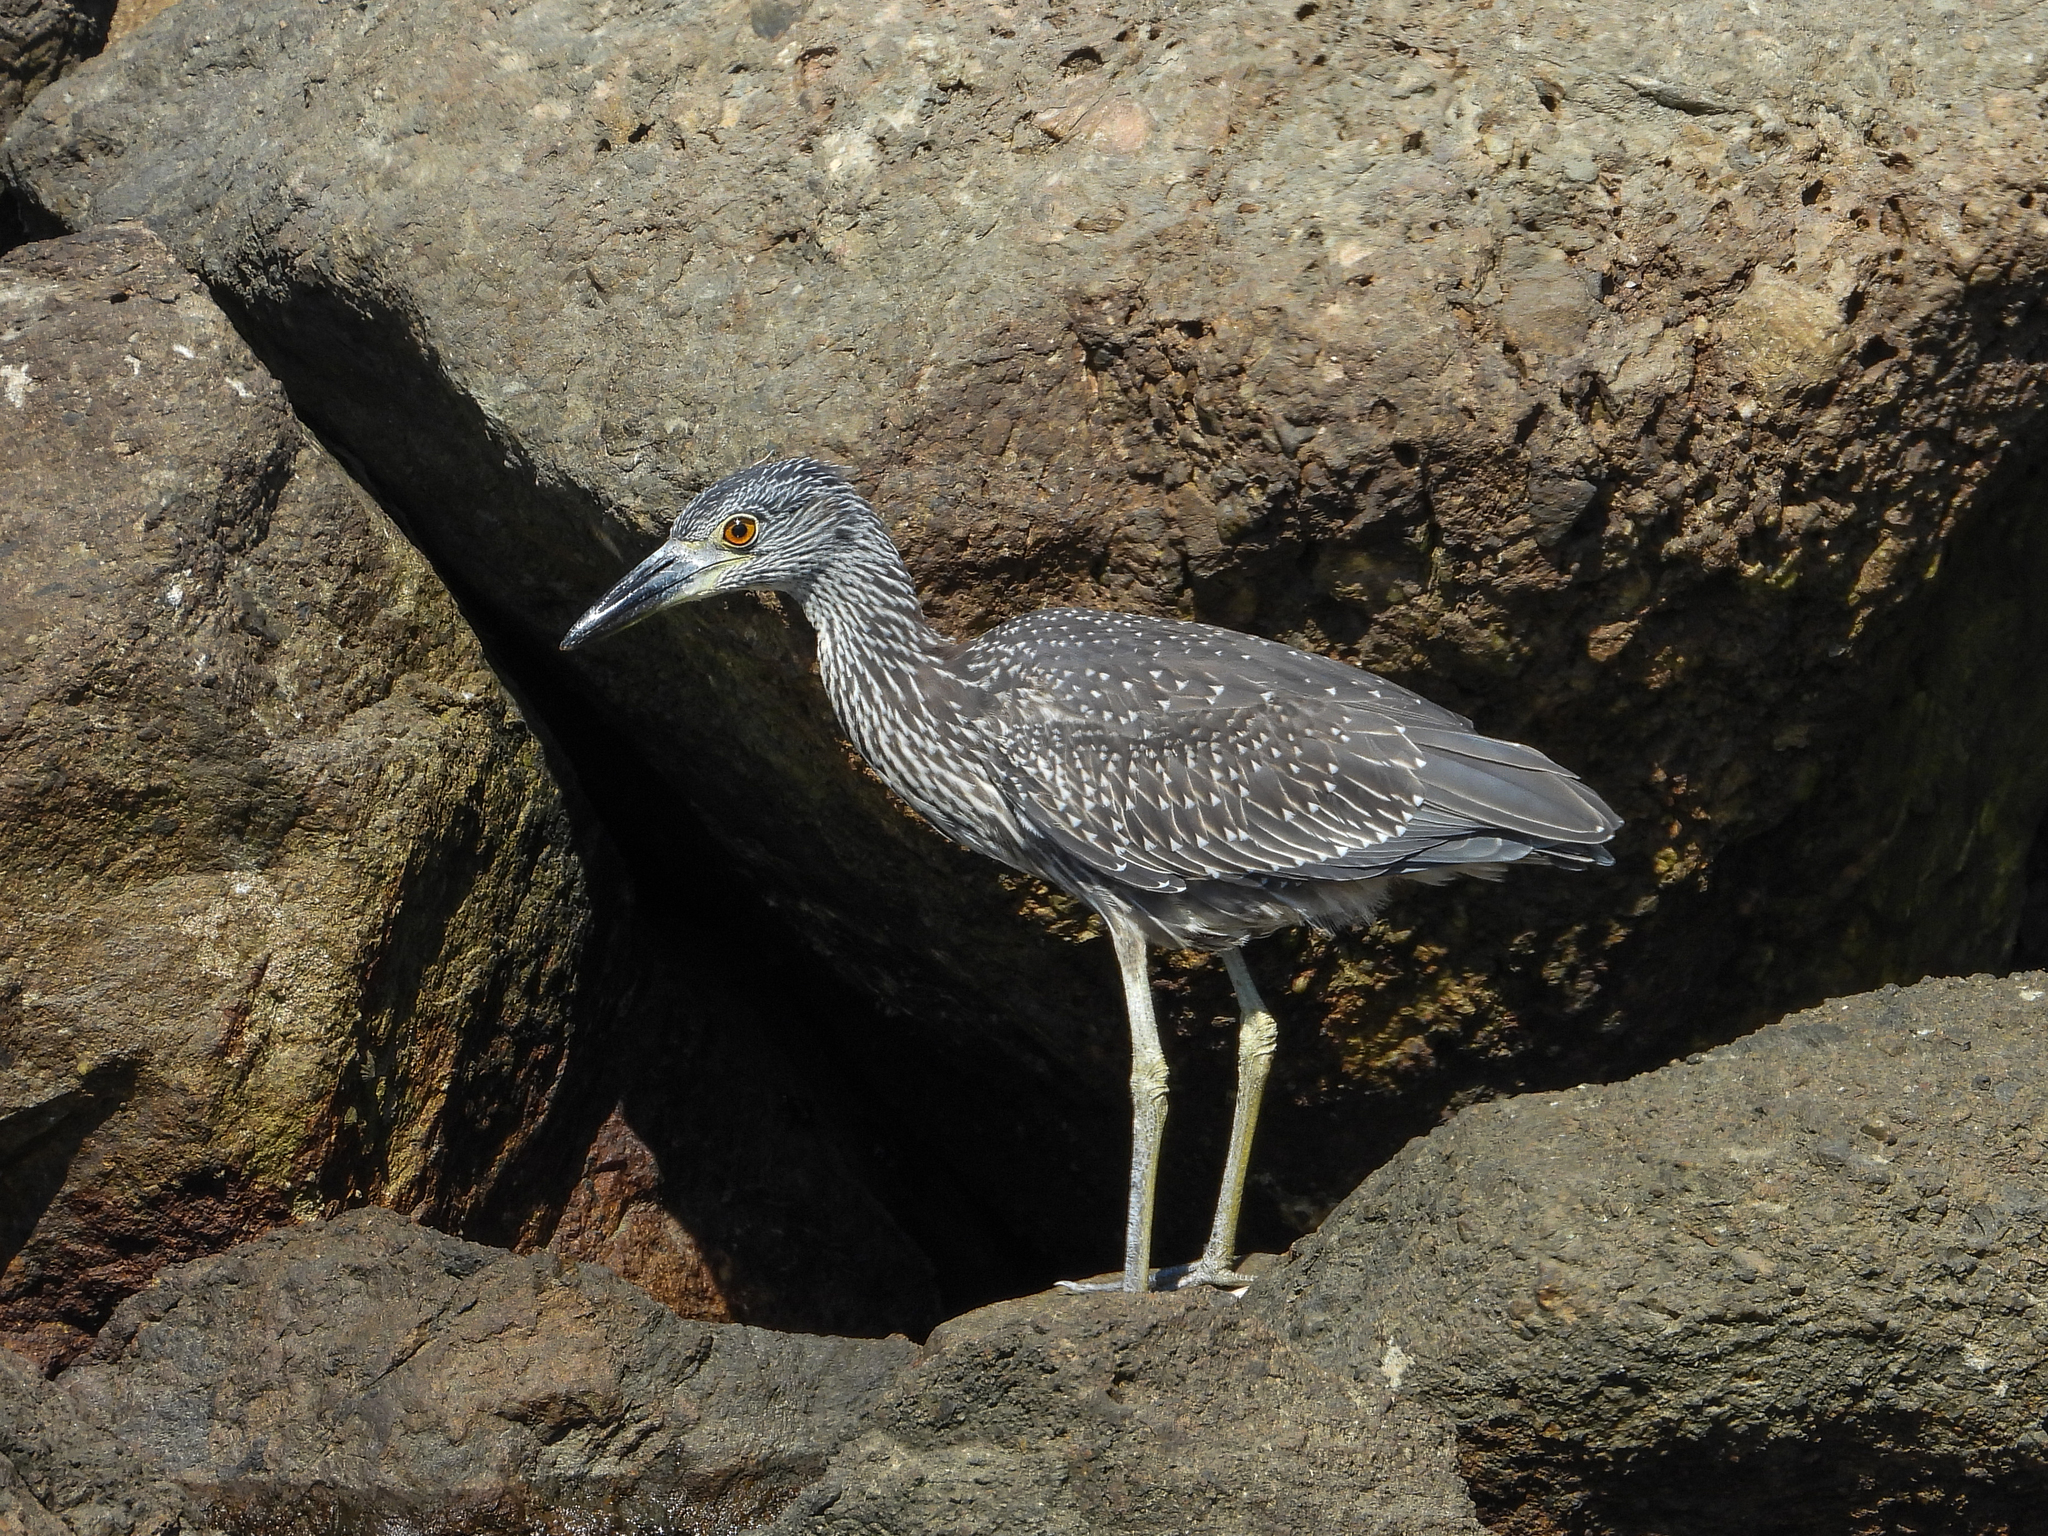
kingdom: Animalia
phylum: Chordata
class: Aves
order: Pelecaniformes
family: Ardeidae
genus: Nyctanassa
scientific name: Nyctanassa violacea
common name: Yellow-crowned night heron
